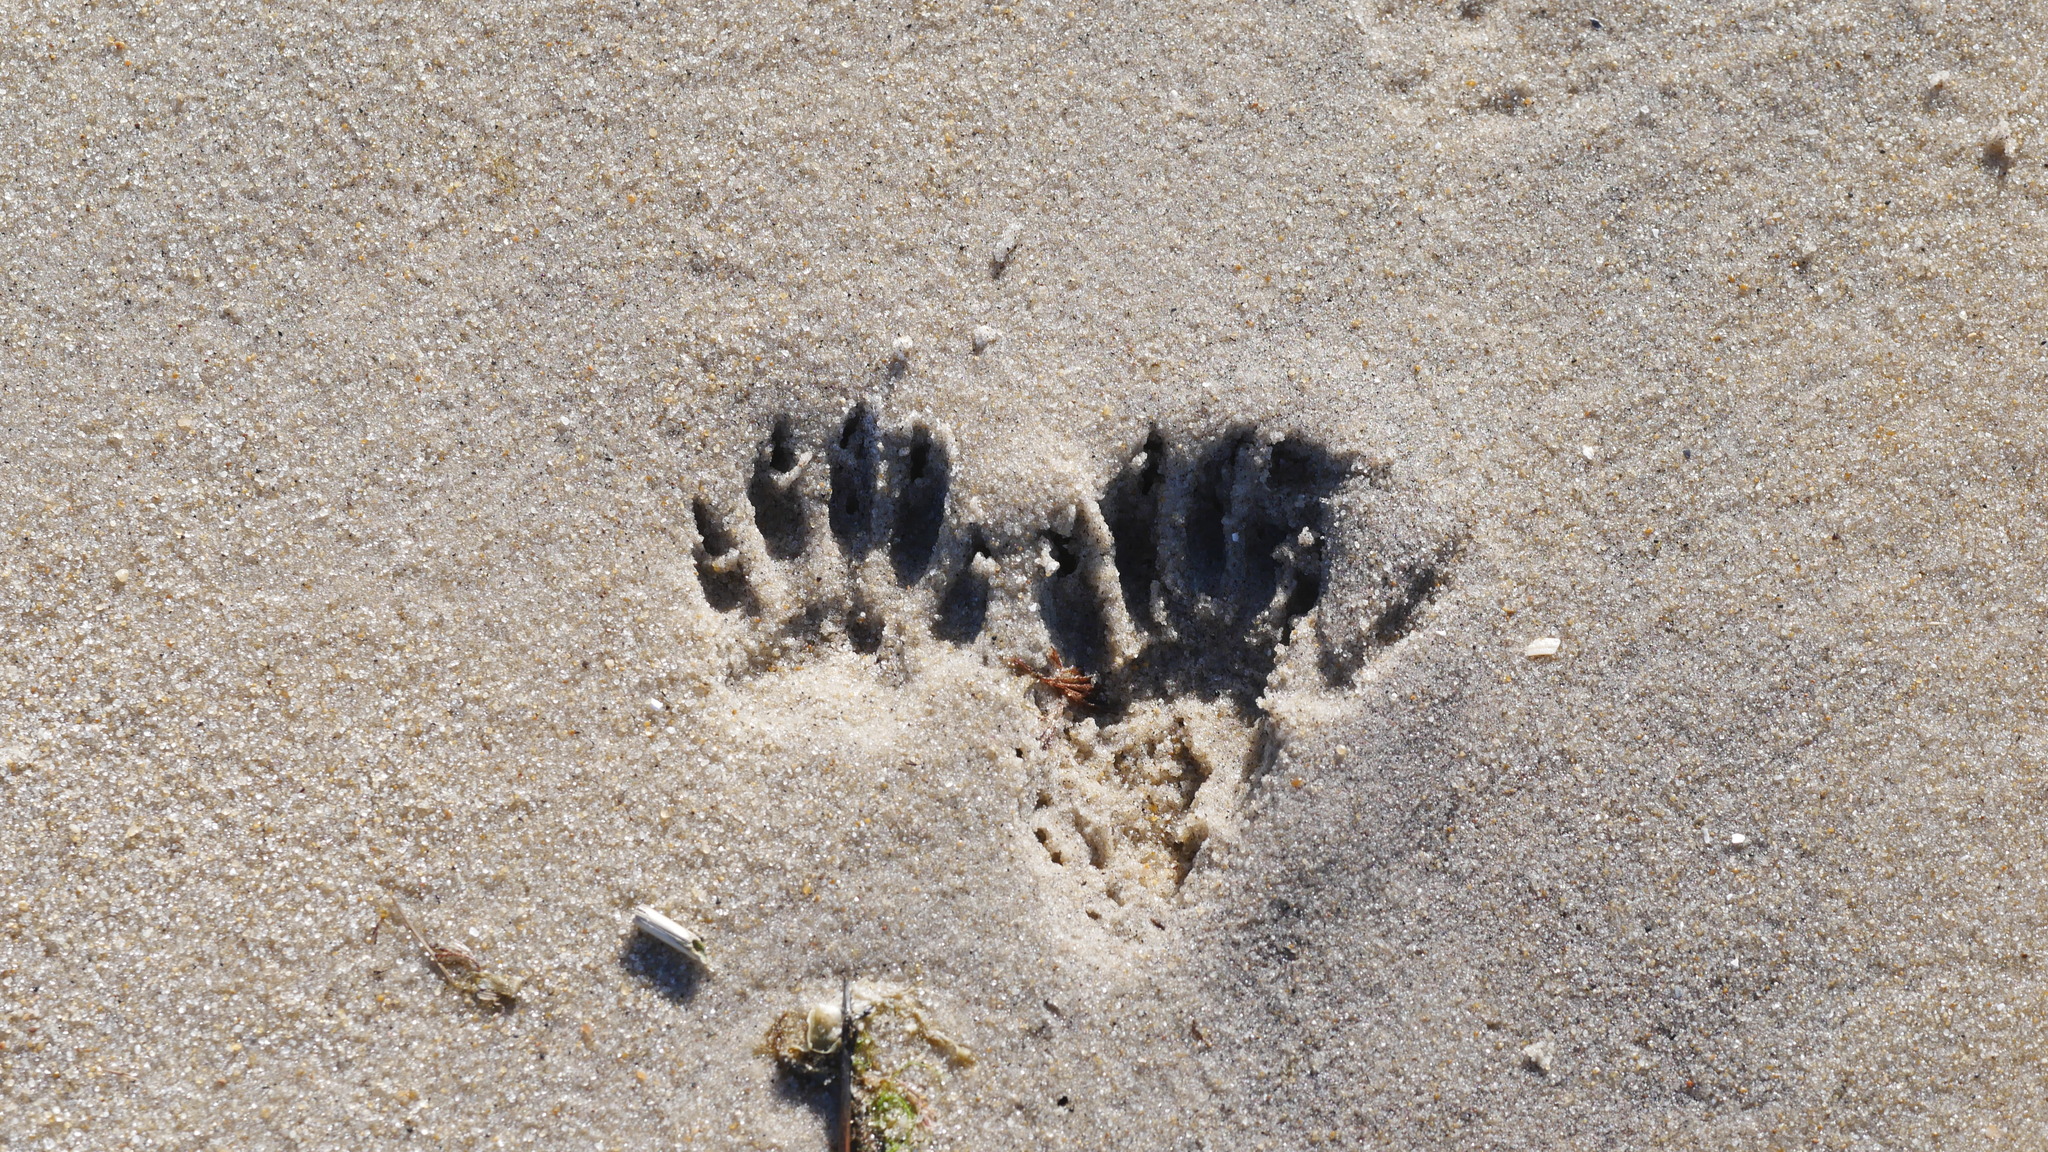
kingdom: Animalia
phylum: Chordata
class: Mammalia
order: Carnivora
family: Procyonidae
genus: Procyon
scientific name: Procyon lotor
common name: Raccoon
